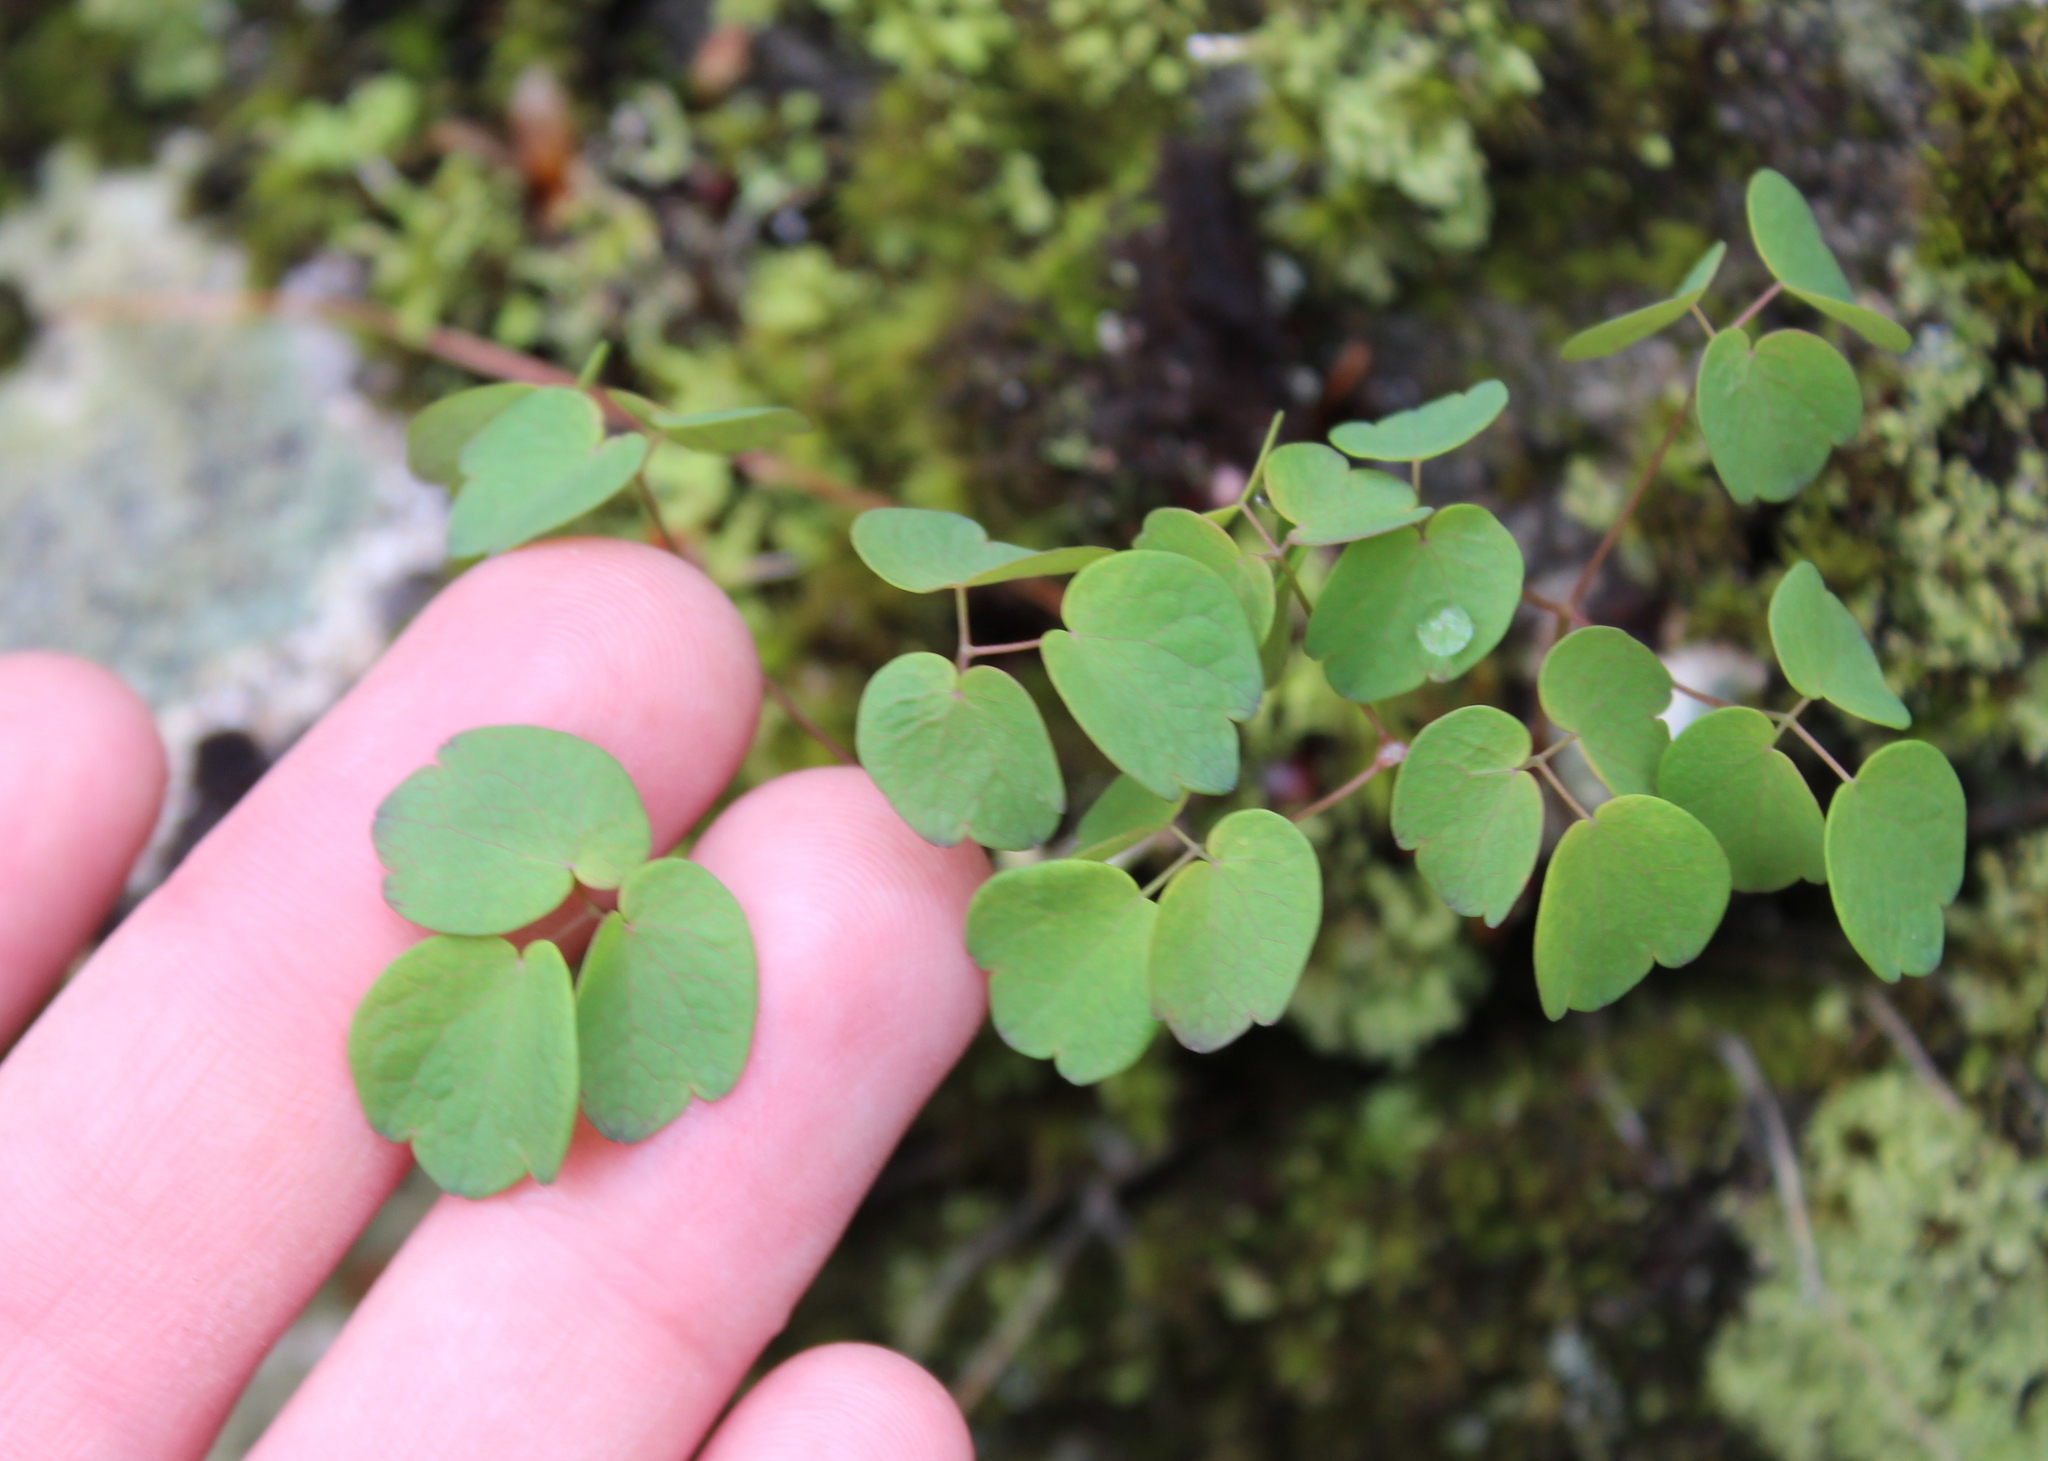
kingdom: Plantae
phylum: Tracheophyta
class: Magnoliopsida
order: Ranunculales
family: Ranunculaceae
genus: Thalictrum
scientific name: Thalictrum thalictroides
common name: Rue-anemone
